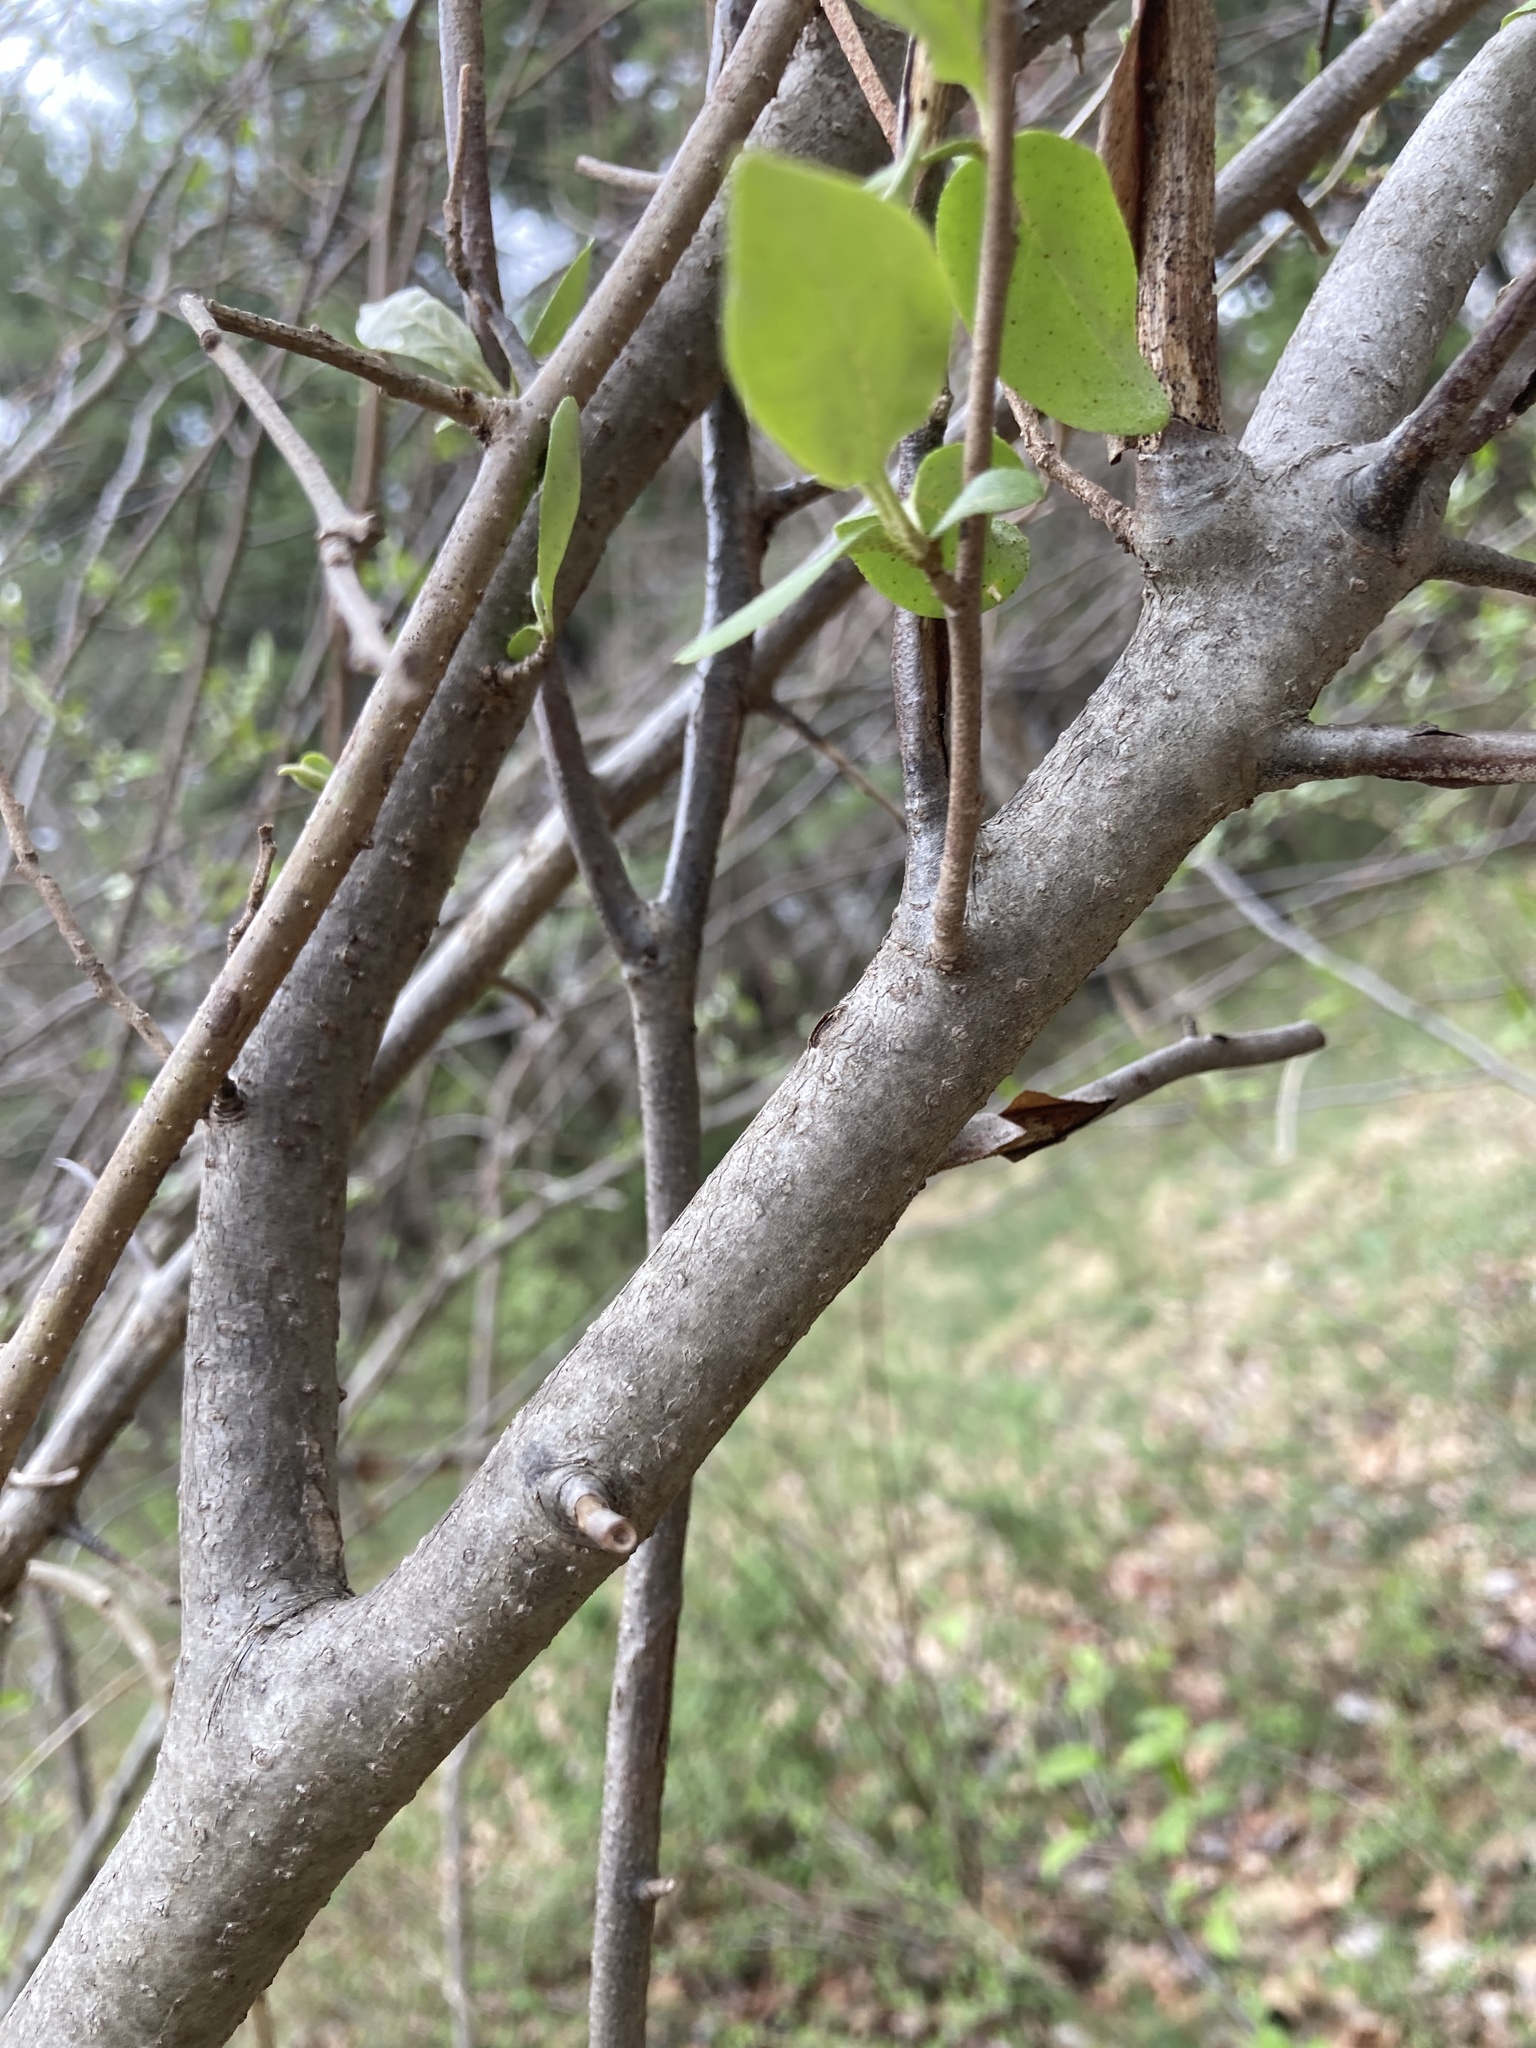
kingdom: Plantae
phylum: Tracheophyta
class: Magnoliopsida
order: Rosales
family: Elaeagnaceae
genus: Elaeagnus
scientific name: Elaeagnus umbellata
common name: Autumn olive
